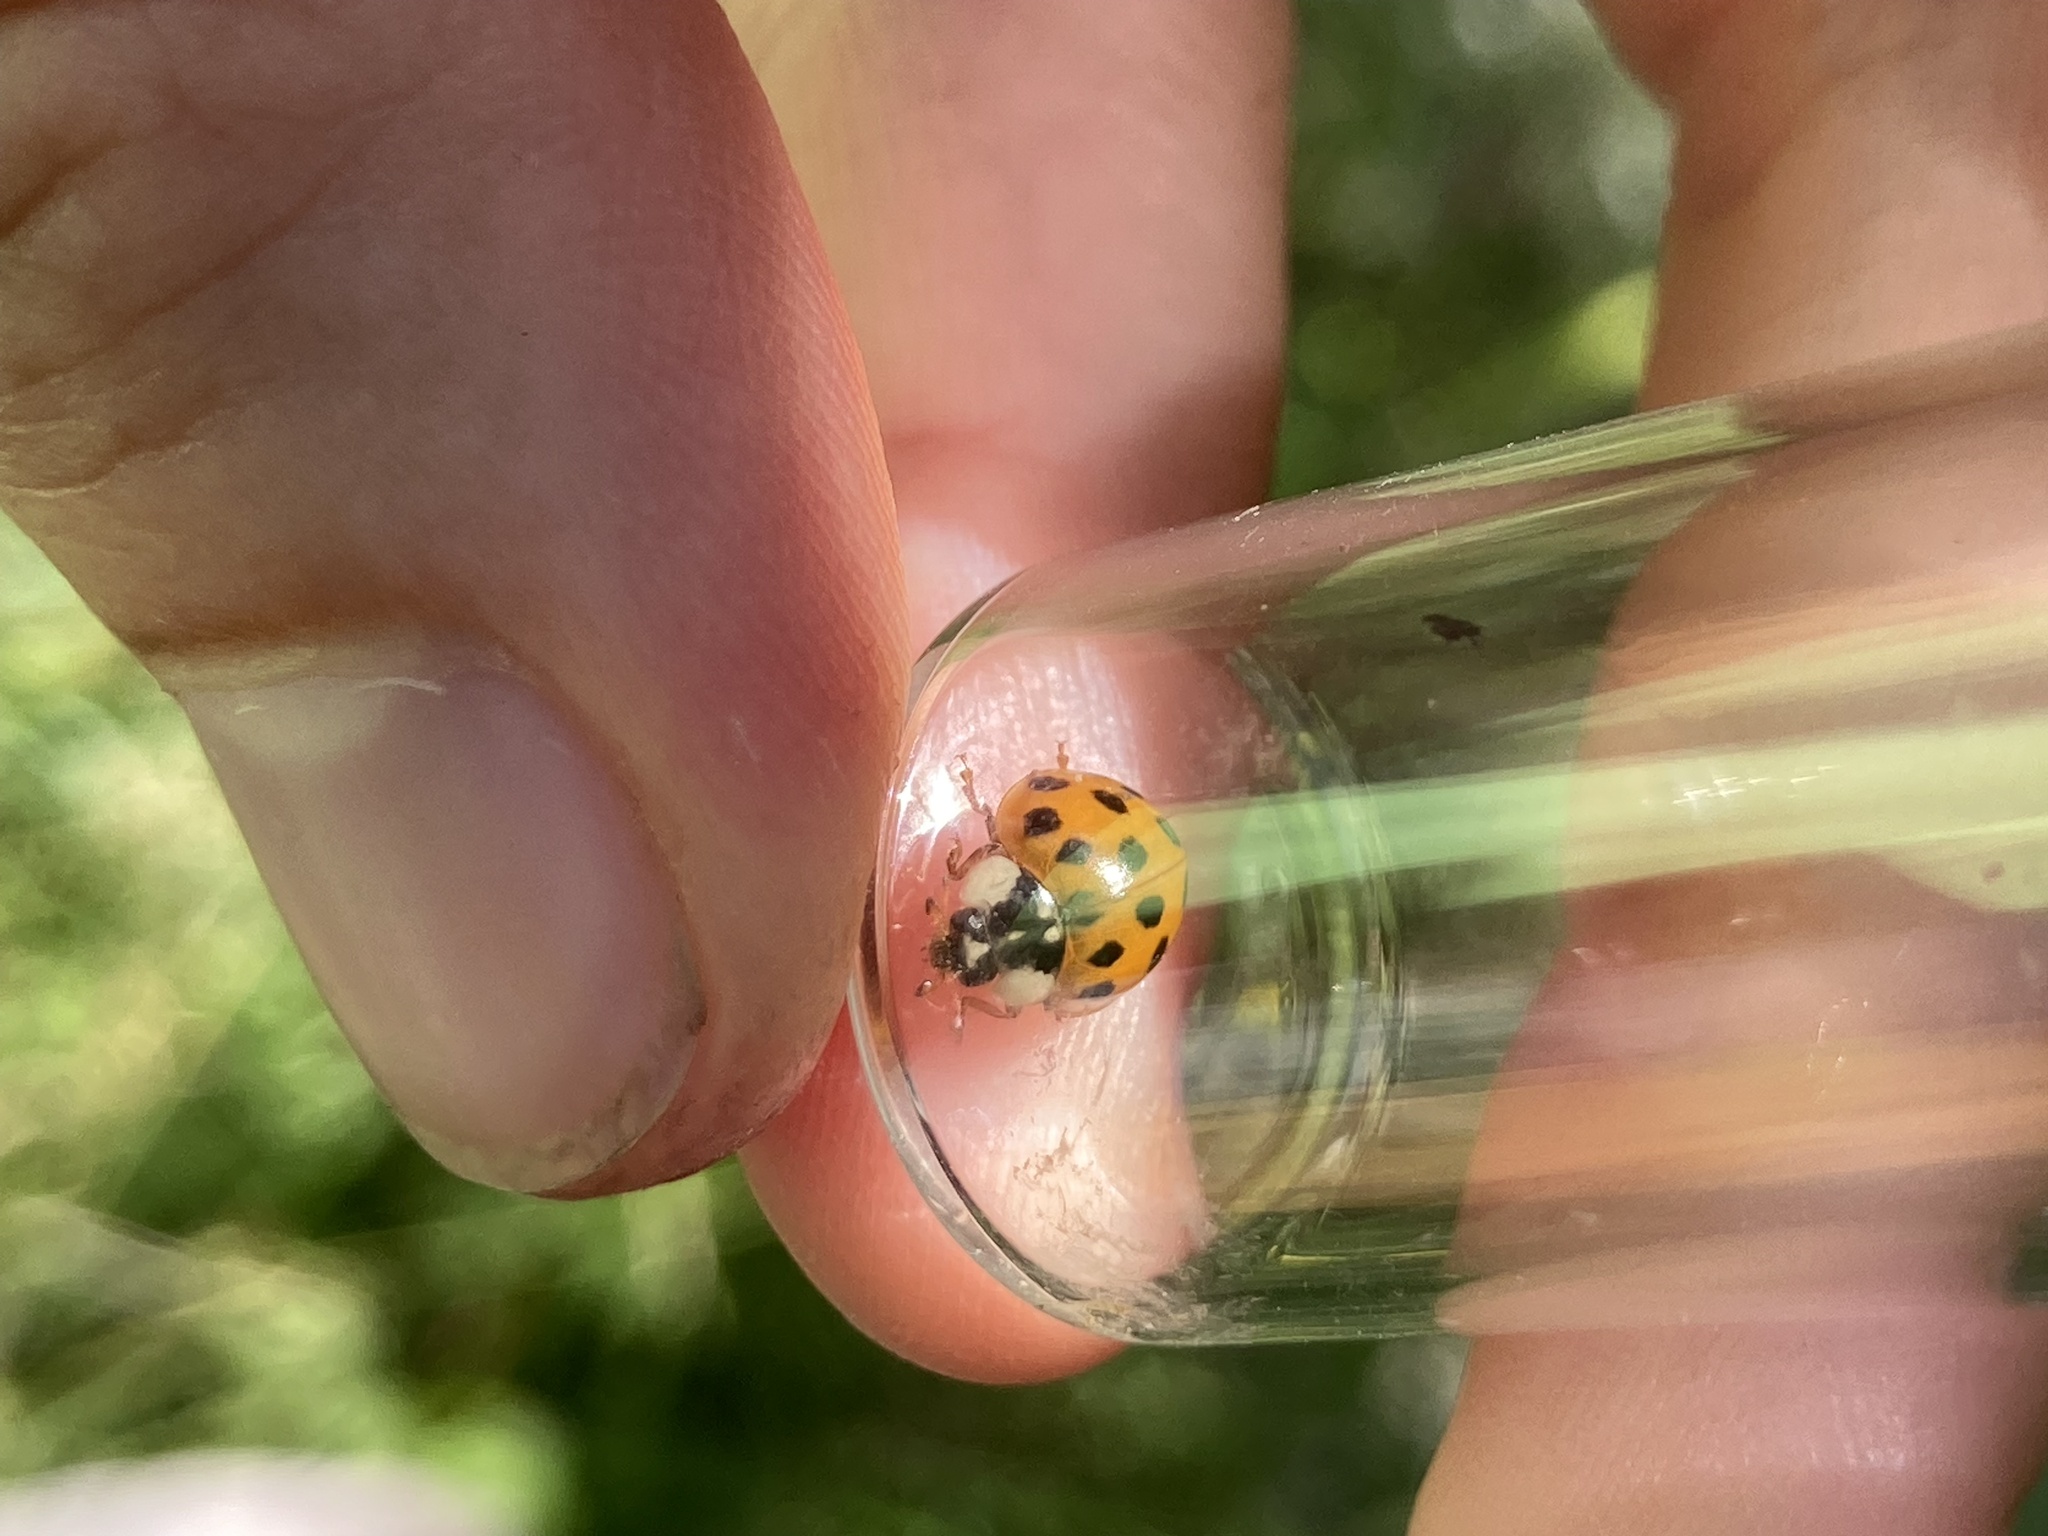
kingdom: Animalia
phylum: Arthropoda
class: Insecta
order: Coleoptera
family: Coccinellidae
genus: Harmonia
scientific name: Harmonia axyridis
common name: Harlequin ladybird
